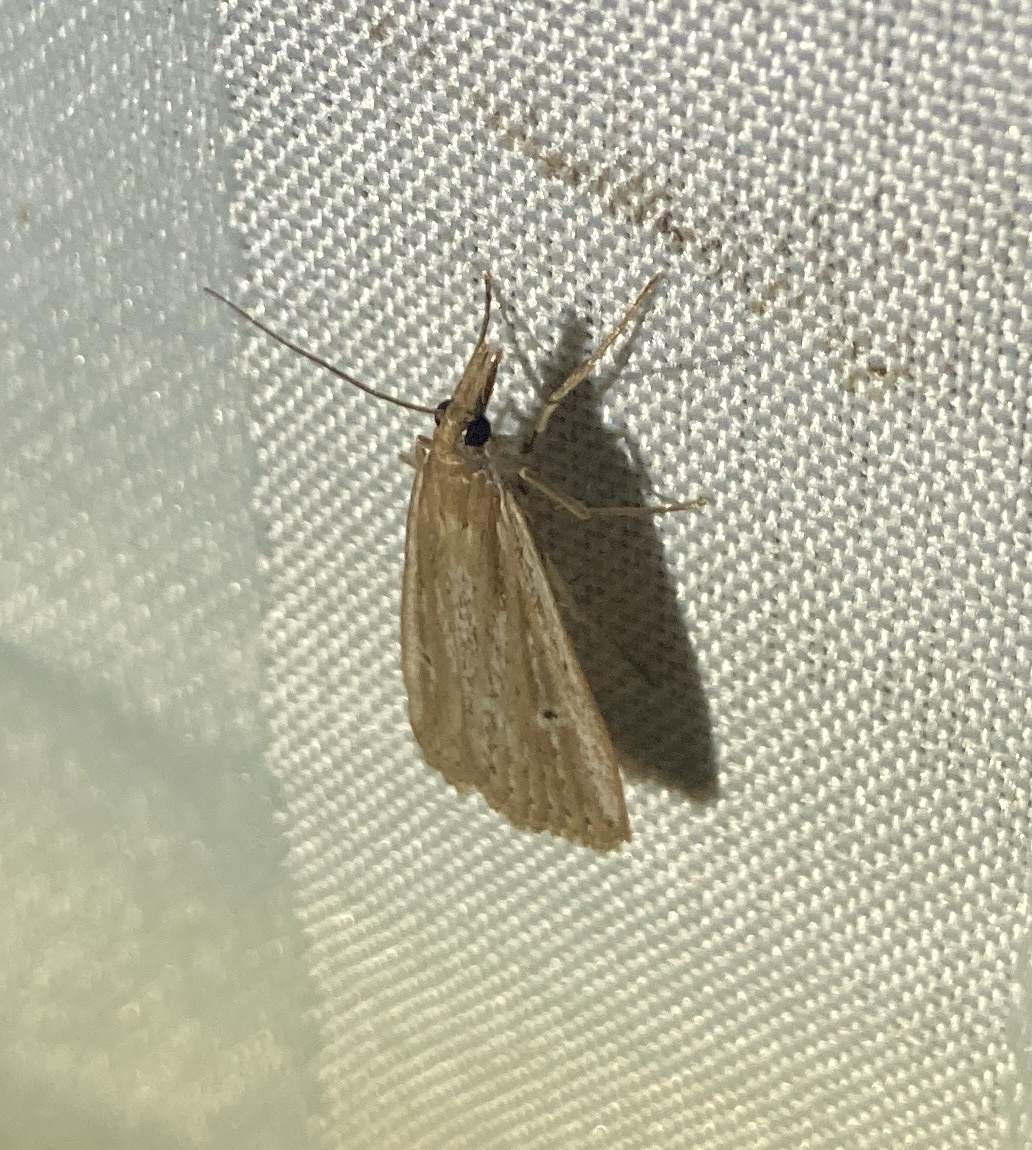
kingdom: Animalia
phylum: Arthropoda
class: Insecta
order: Lepidoptera
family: Crambidae
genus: Eudonia
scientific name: Eudonia sabulosella
